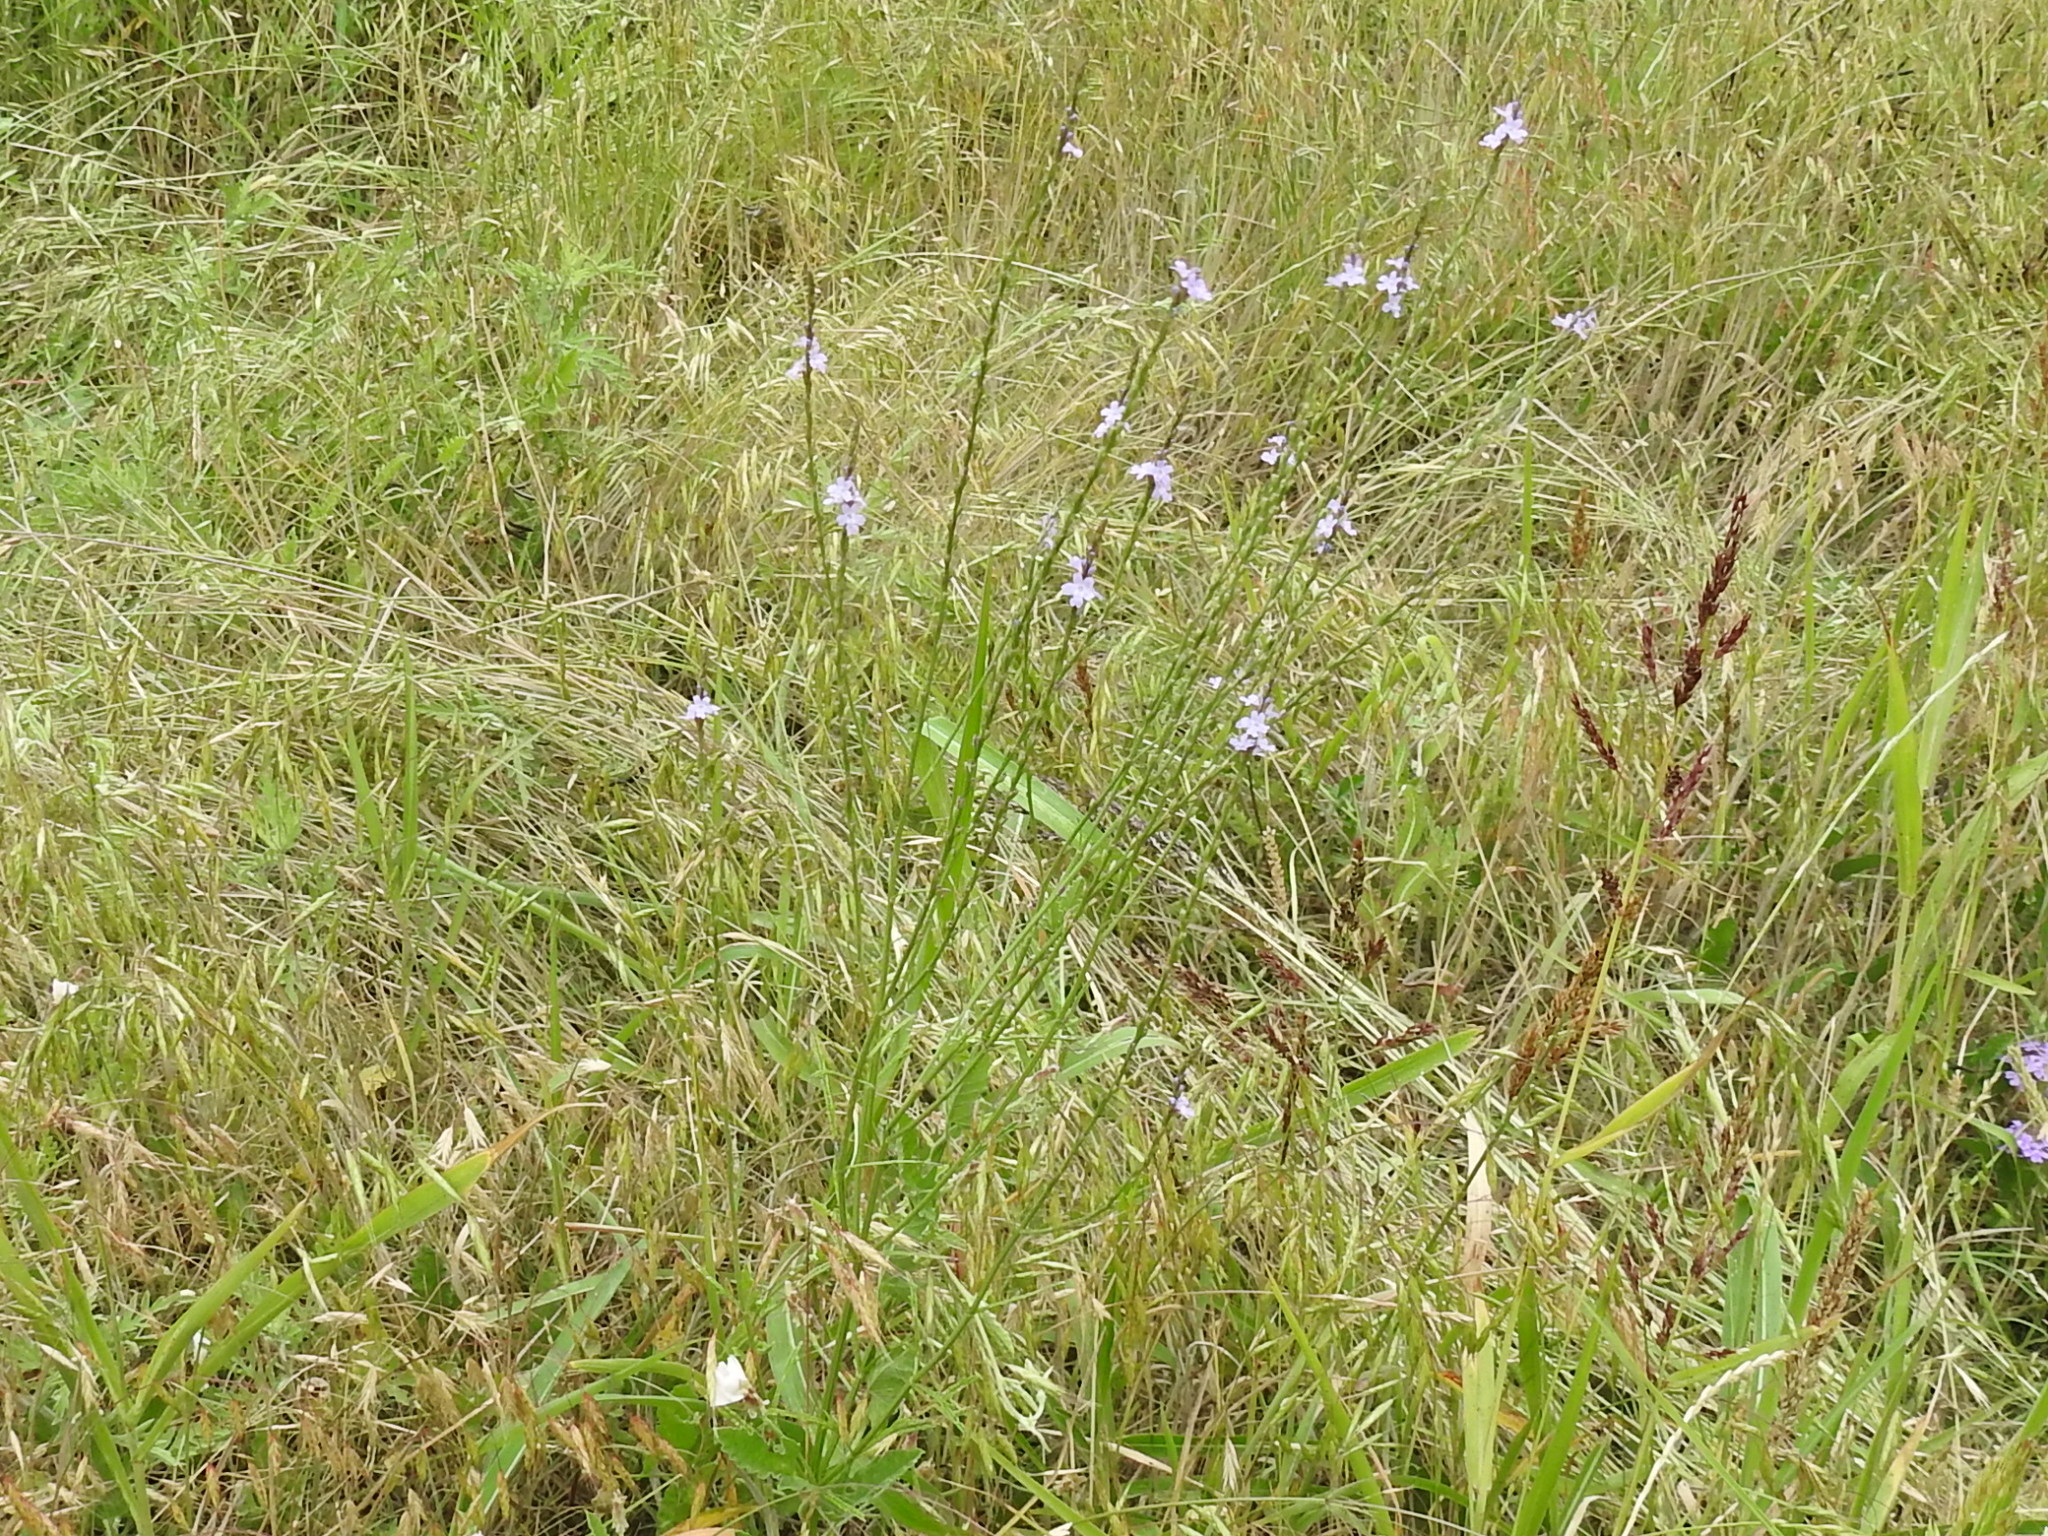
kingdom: Plantae
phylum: Tracheophyta
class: Magnoliopsida
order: Lamiales
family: Verbenaceae
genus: Verbena
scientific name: Verbena halei
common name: Texas vervain
